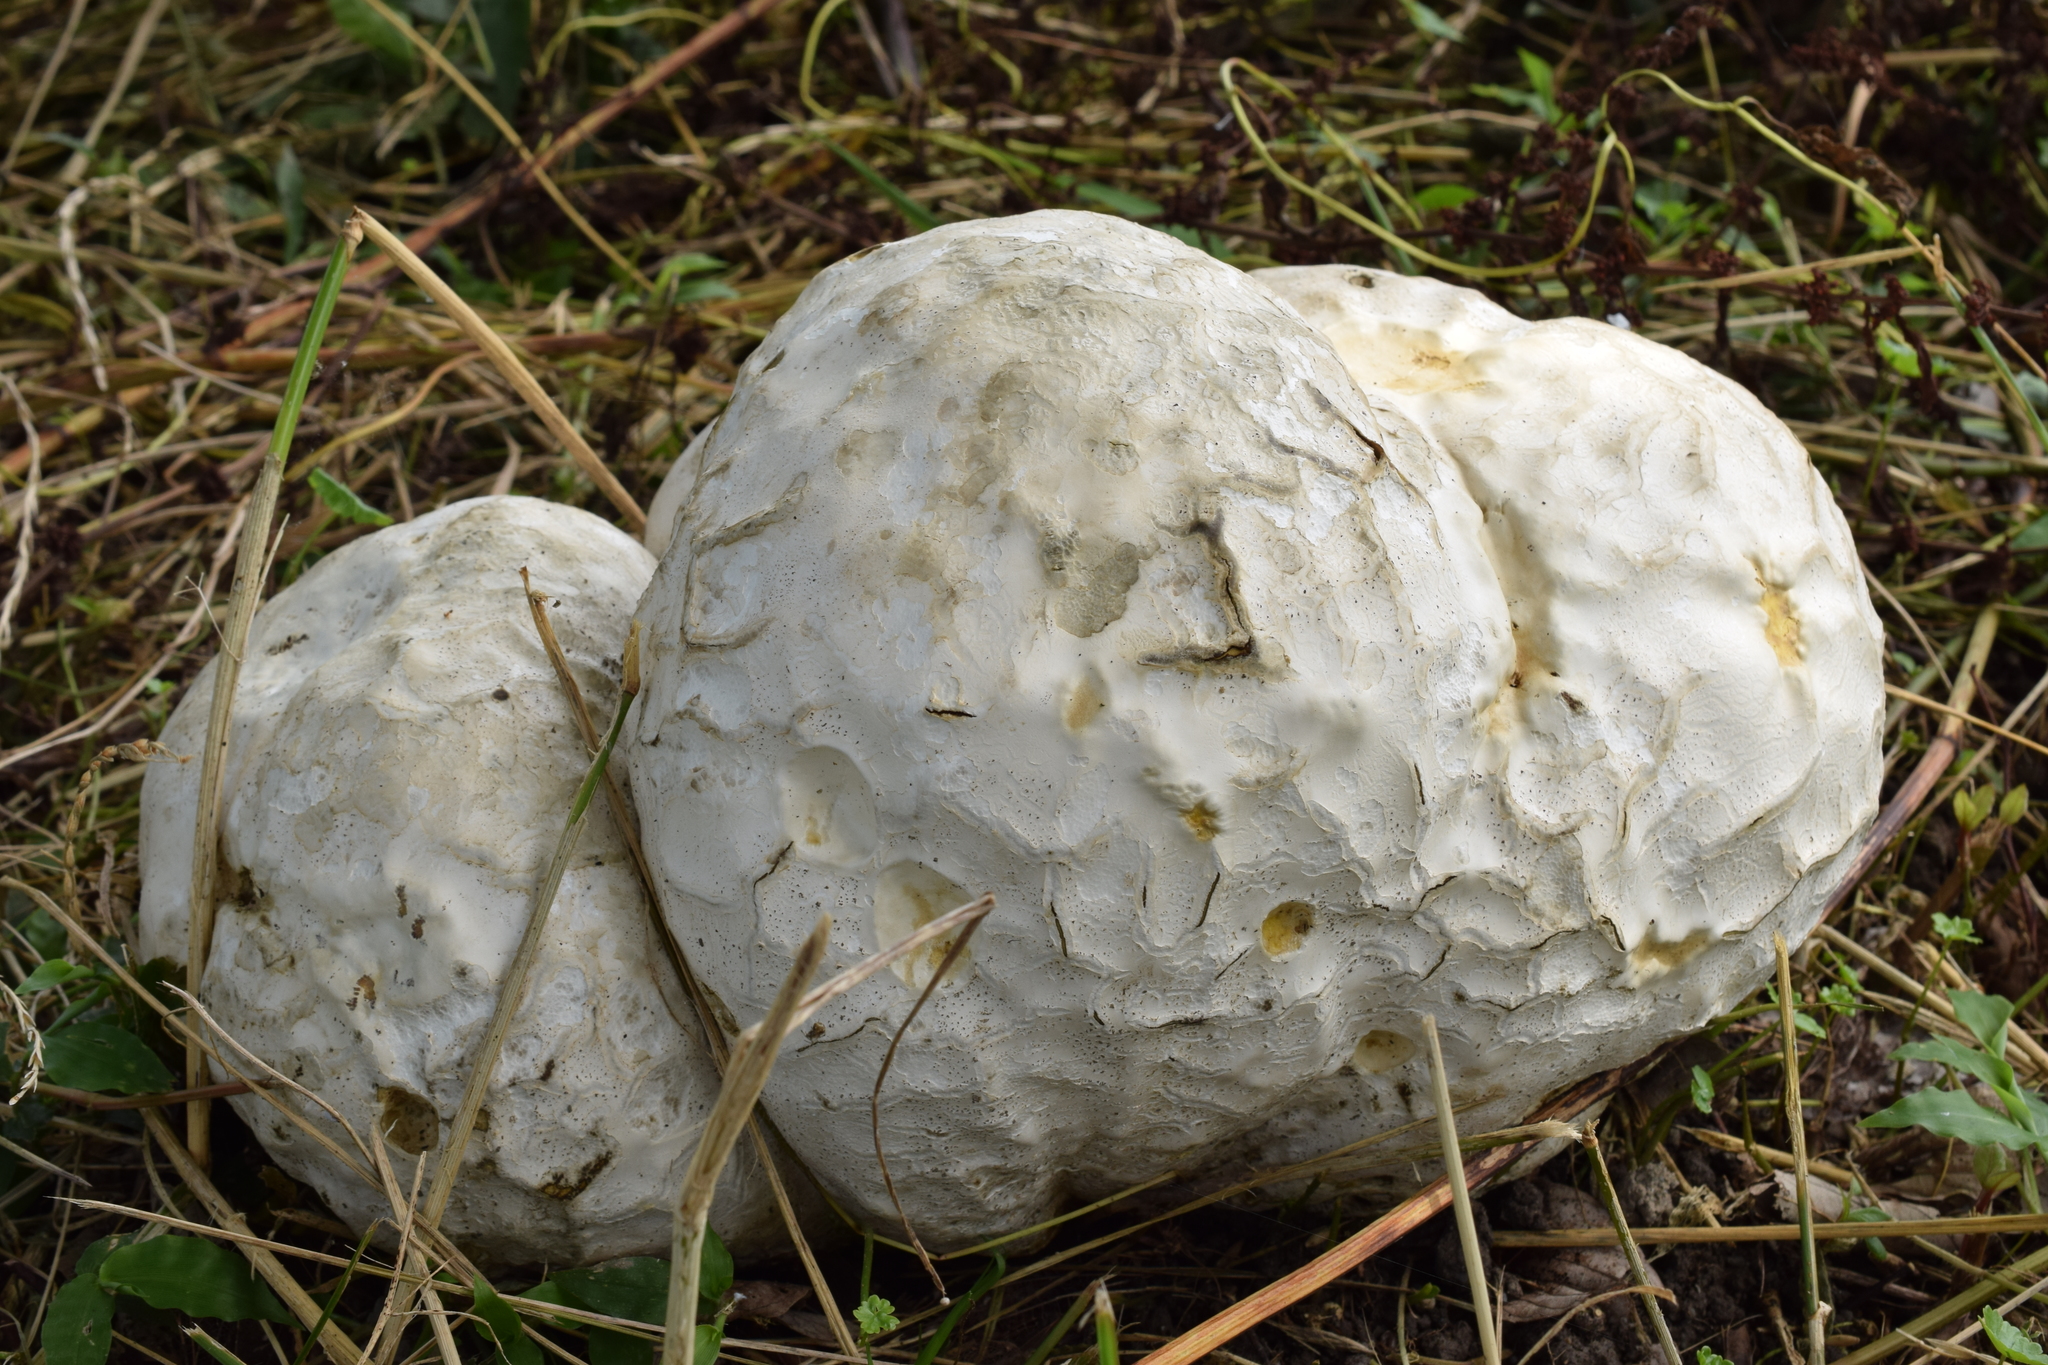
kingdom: Fungi
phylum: Basidiomycota
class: Agaricomycetes
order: Agaricales
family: Lycoperdaceae
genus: Calvatia
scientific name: Calvatia nipponica
